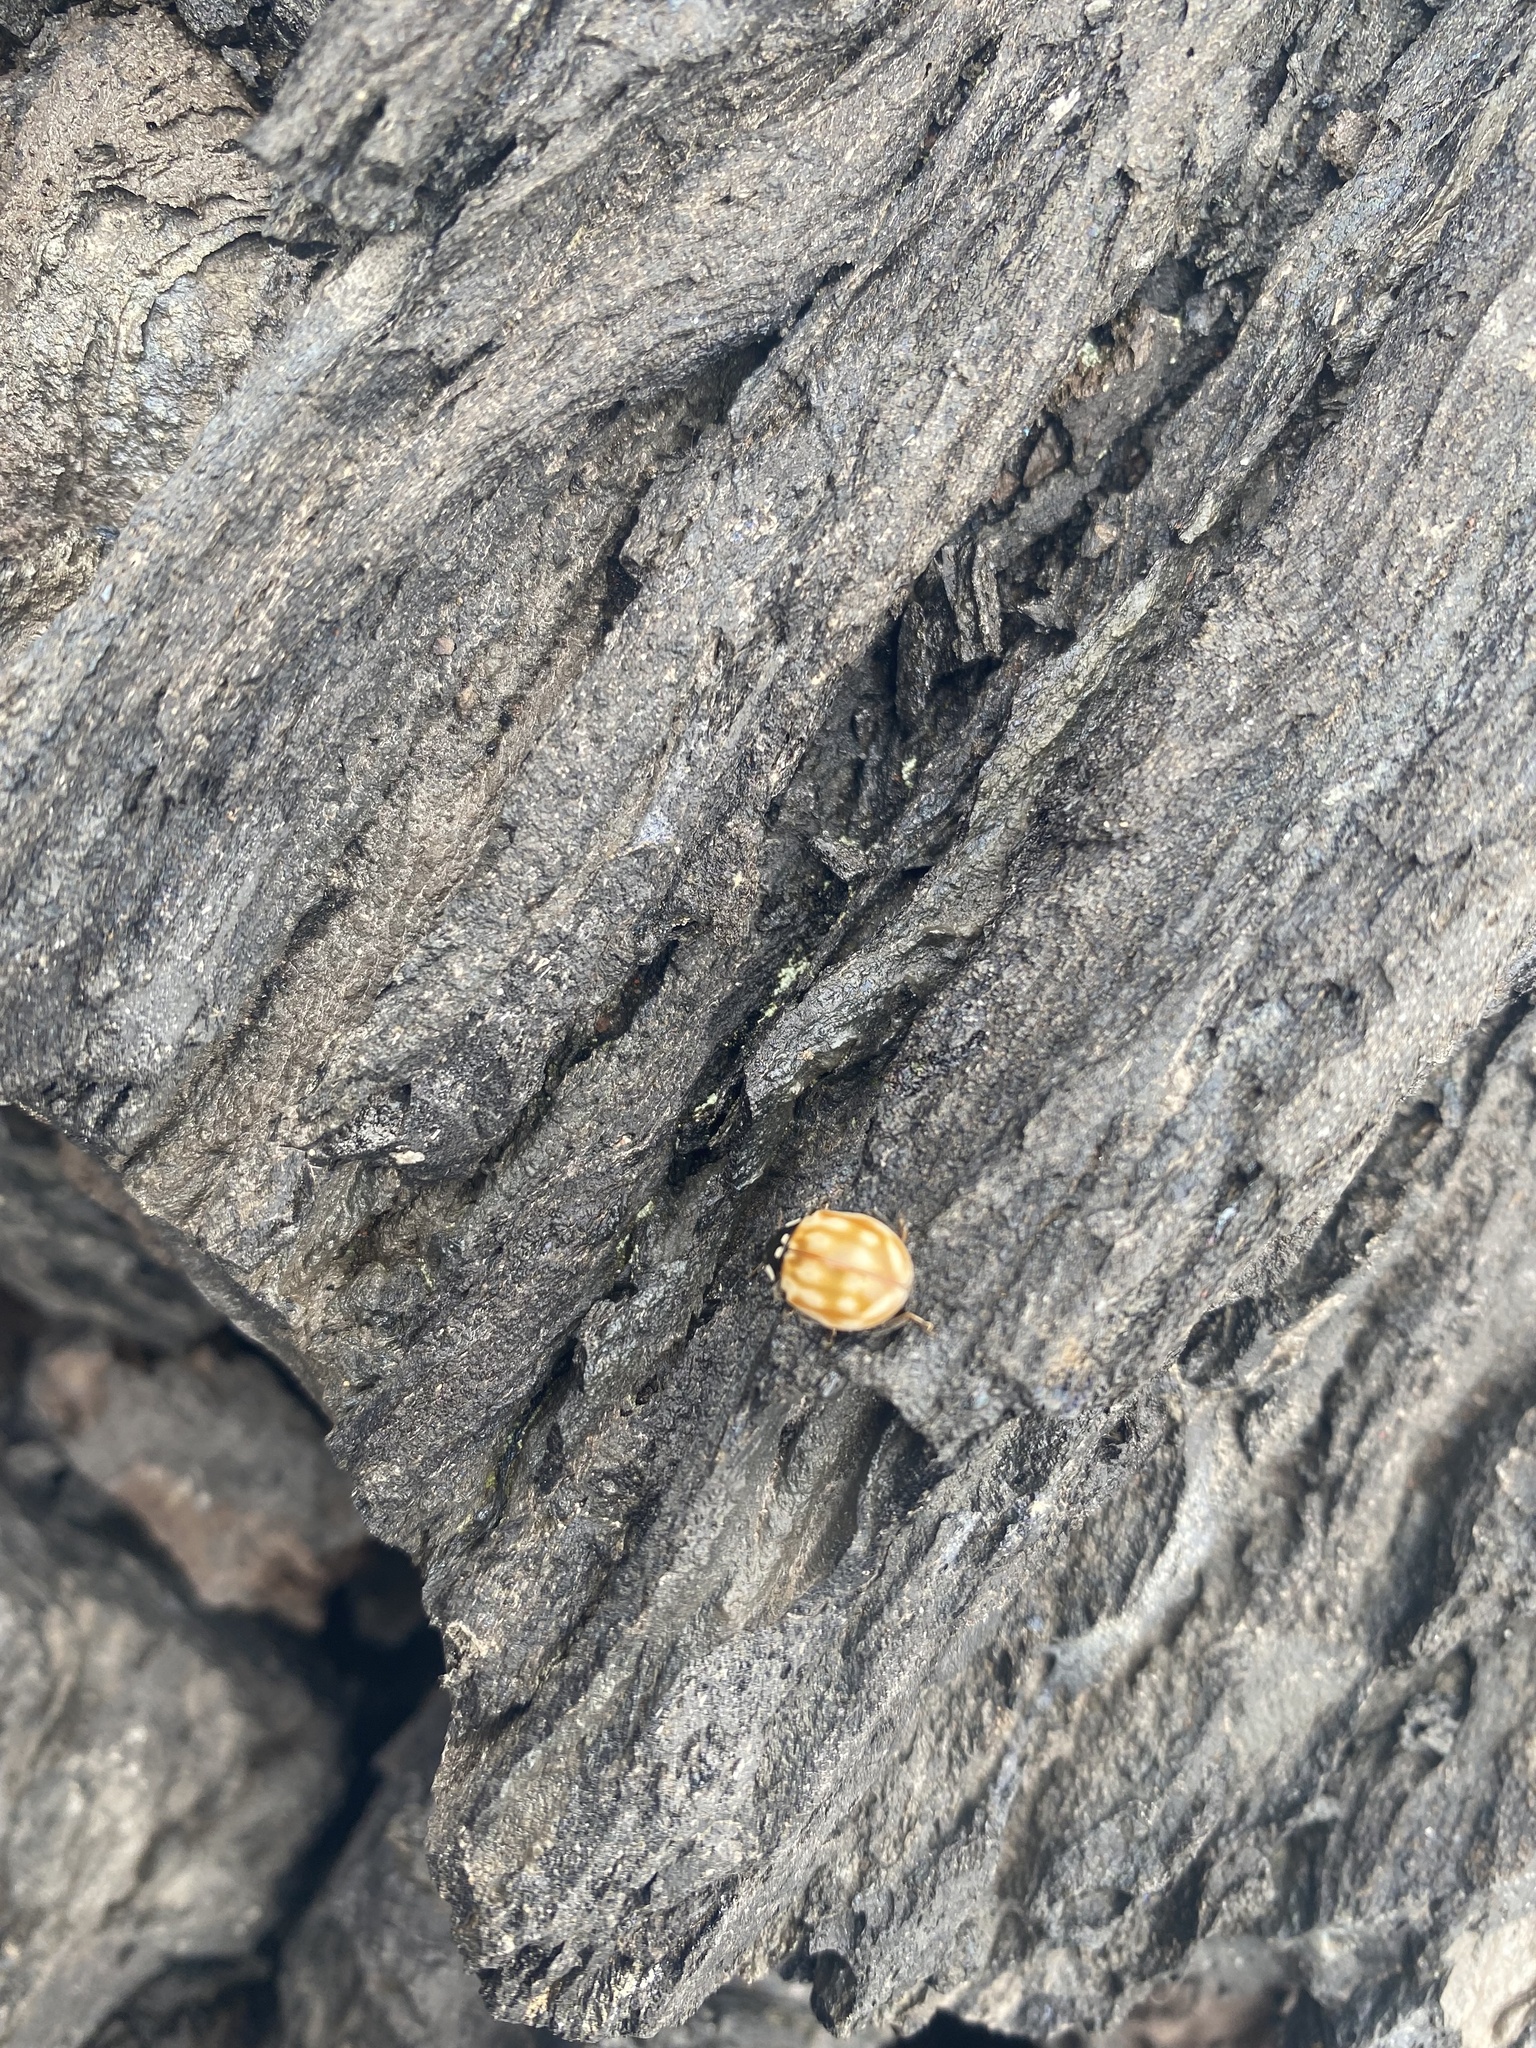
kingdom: Animalia
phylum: Arthropoda
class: Insecta
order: Coleoptera
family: Coccinellidae
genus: Anatis
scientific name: Anatis ocellata
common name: Eyed ladybird
